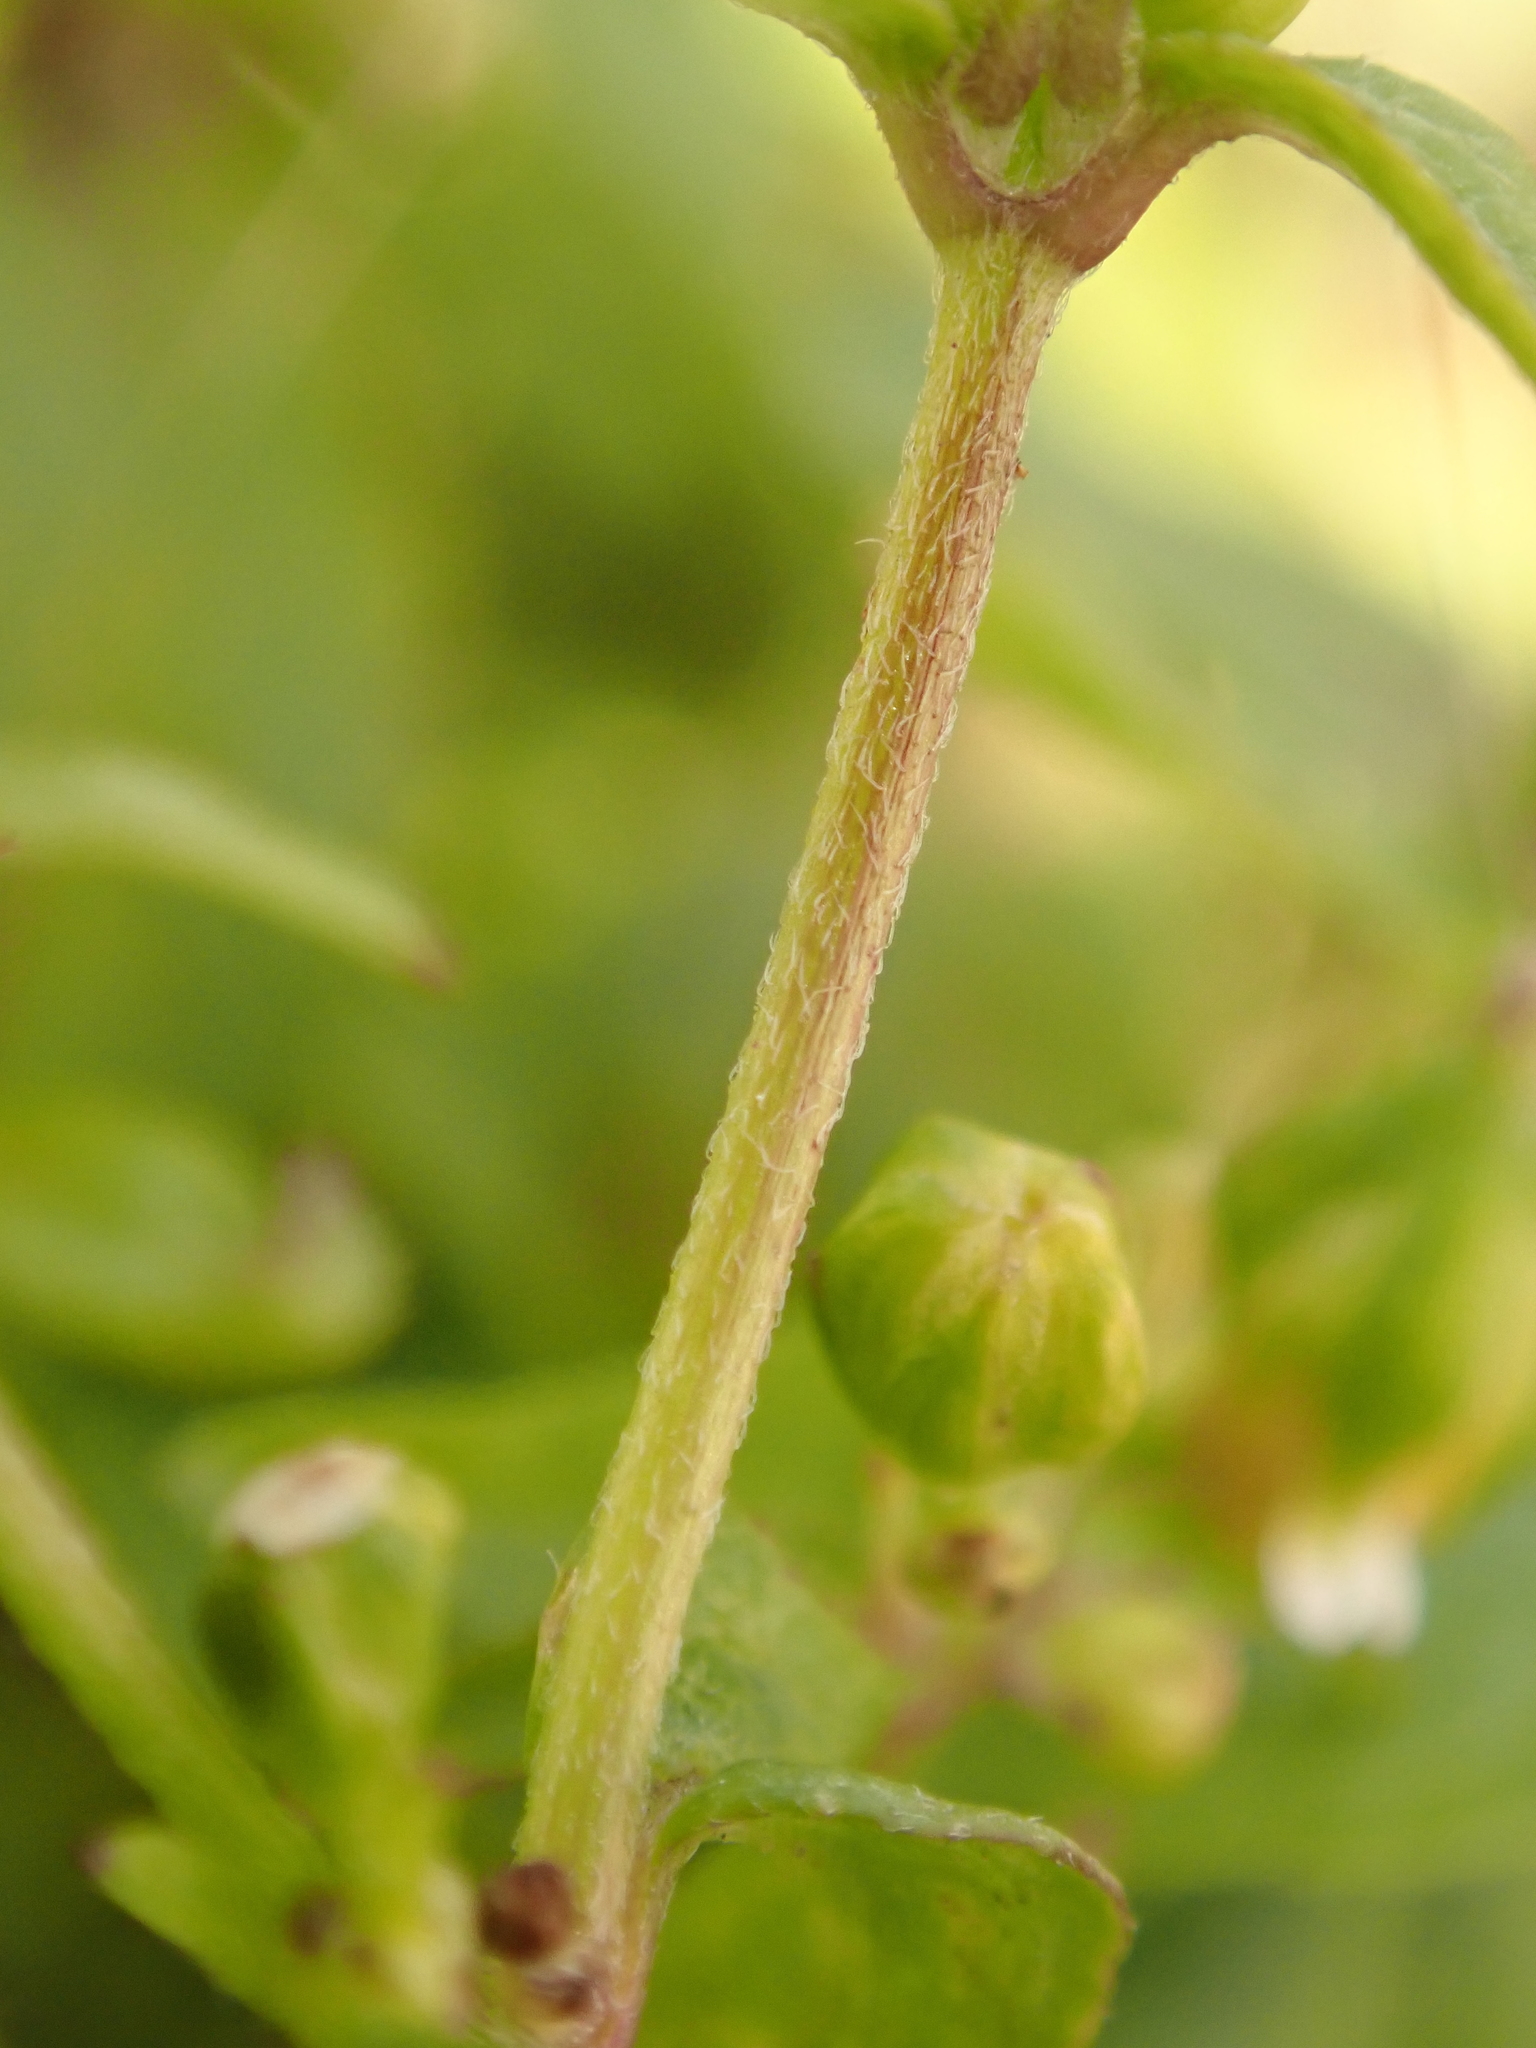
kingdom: Plantae
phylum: Tracheophyta
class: Magnoliopsida
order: Asterales
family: Asteraceae
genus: Galinsoga
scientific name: Galinsoga parviflora
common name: Gallant soldier
